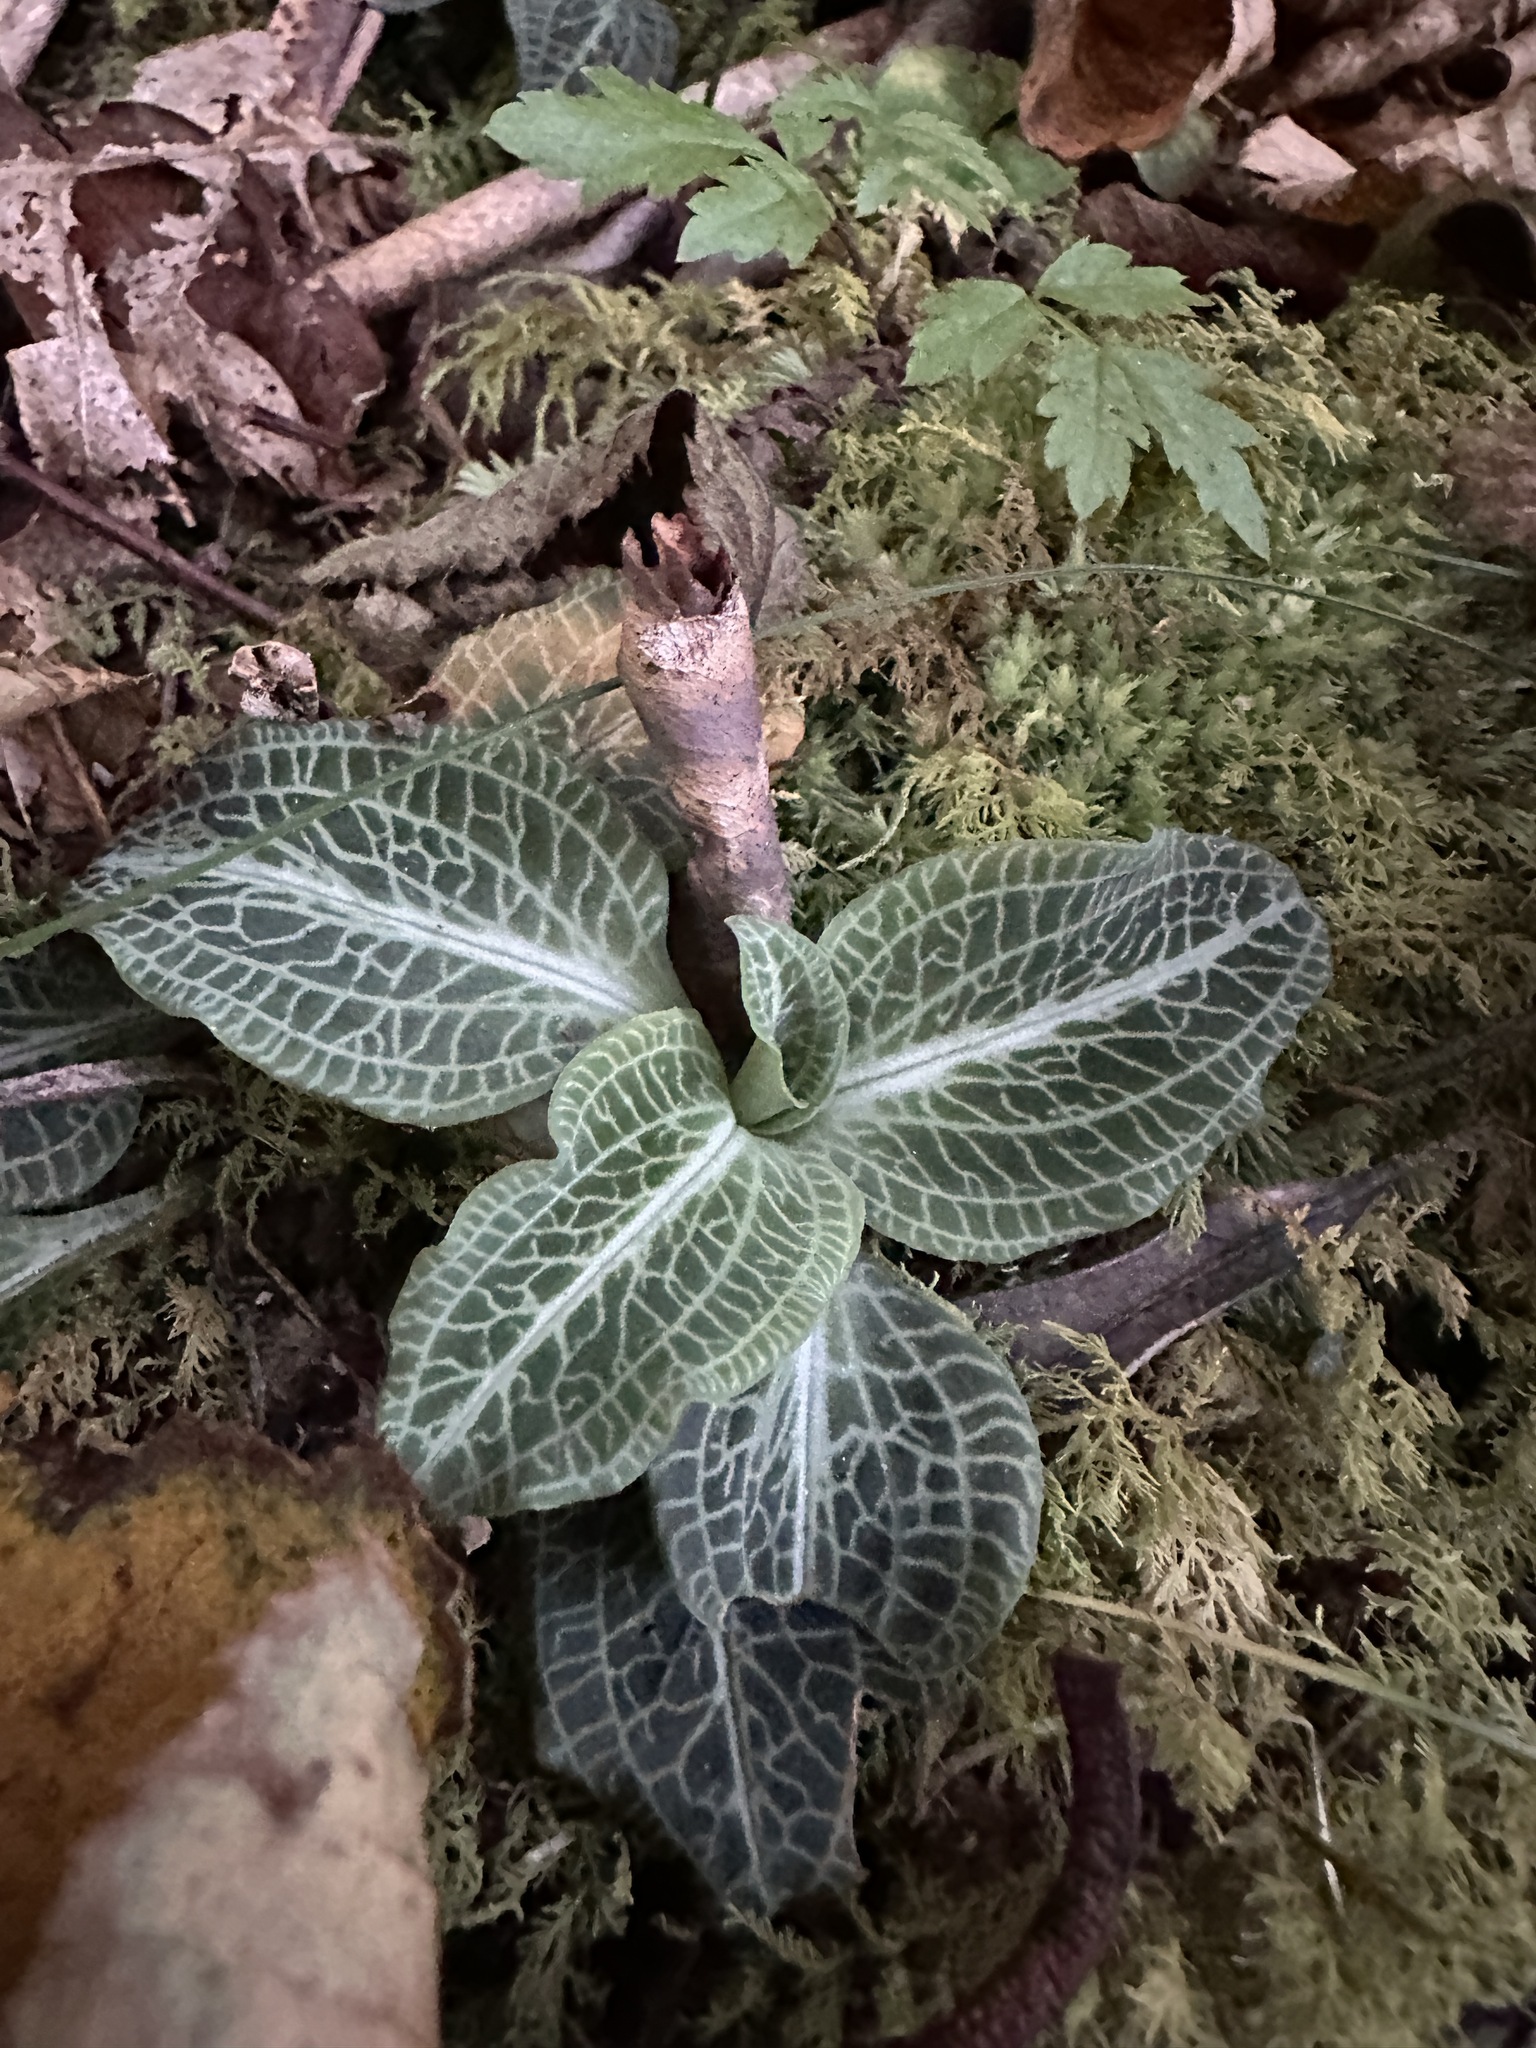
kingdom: Plantae
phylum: Tracheophyta
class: Liliopsida
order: Asparagales
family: Orchidaceae
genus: Goodyera
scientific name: Goodyera pubescens
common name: Downy rattlesnake-plantain
